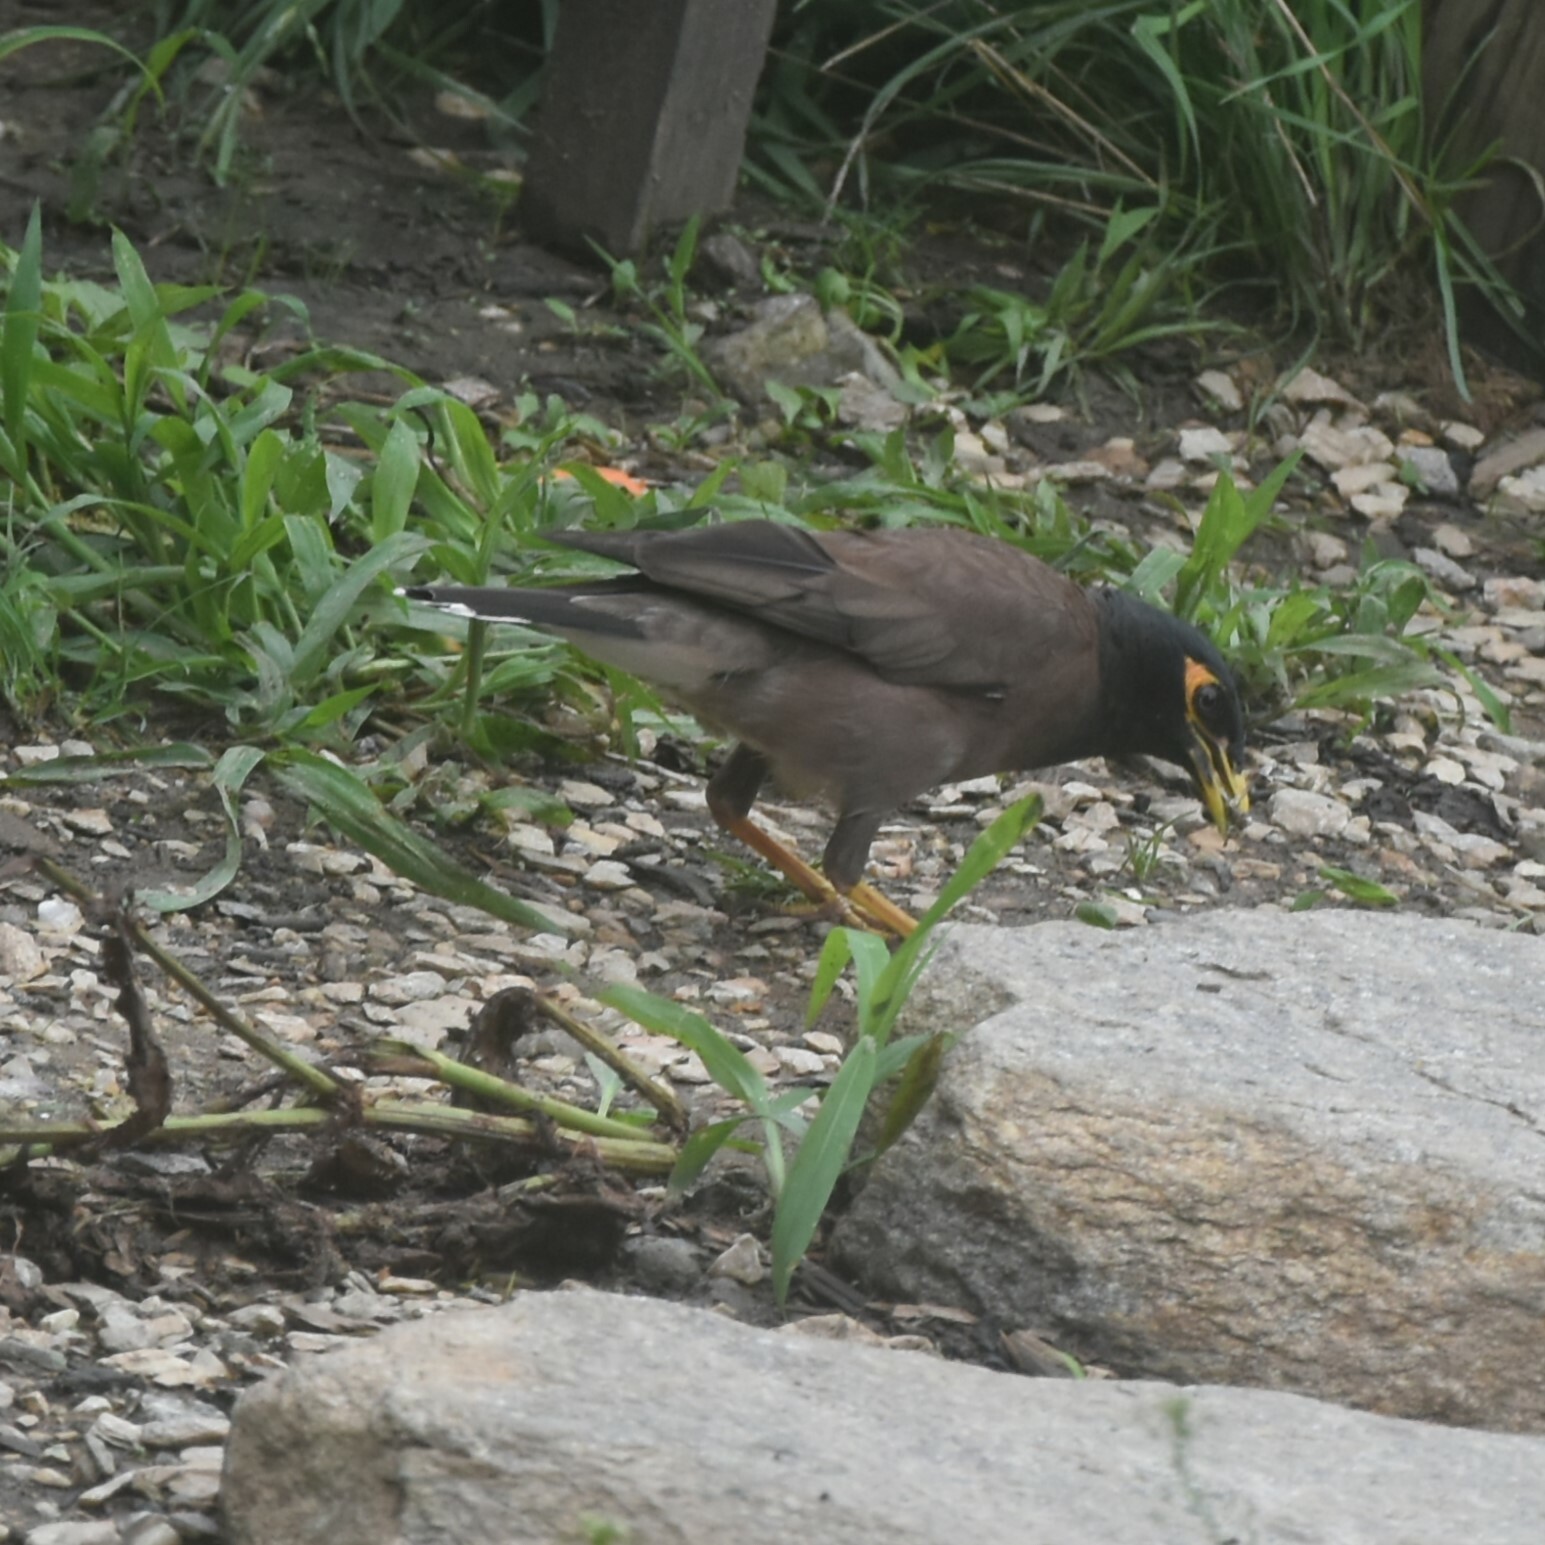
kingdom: Animalia
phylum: Chordata
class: Aves
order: Passeriformes
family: Sturnidae
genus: Acridotheres
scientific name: Acridotheres tristis
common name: Common myna
